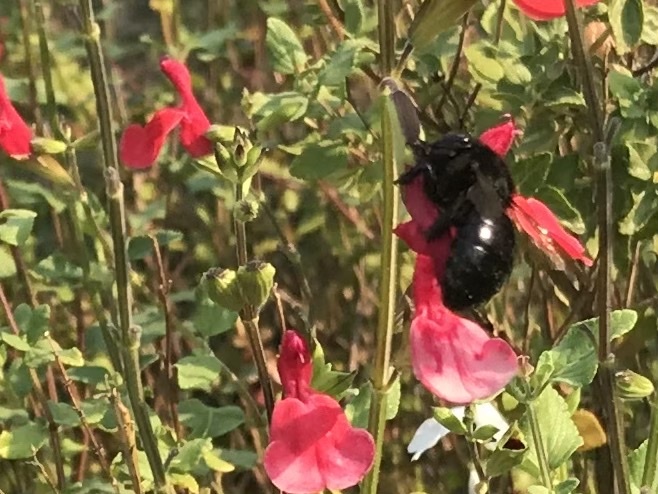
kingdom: Animalia
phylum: Arthropoda
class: Insecta
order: Hymenoptera
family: Apidae
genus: Xylocopa
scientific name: Xylocopa tabaniformis
